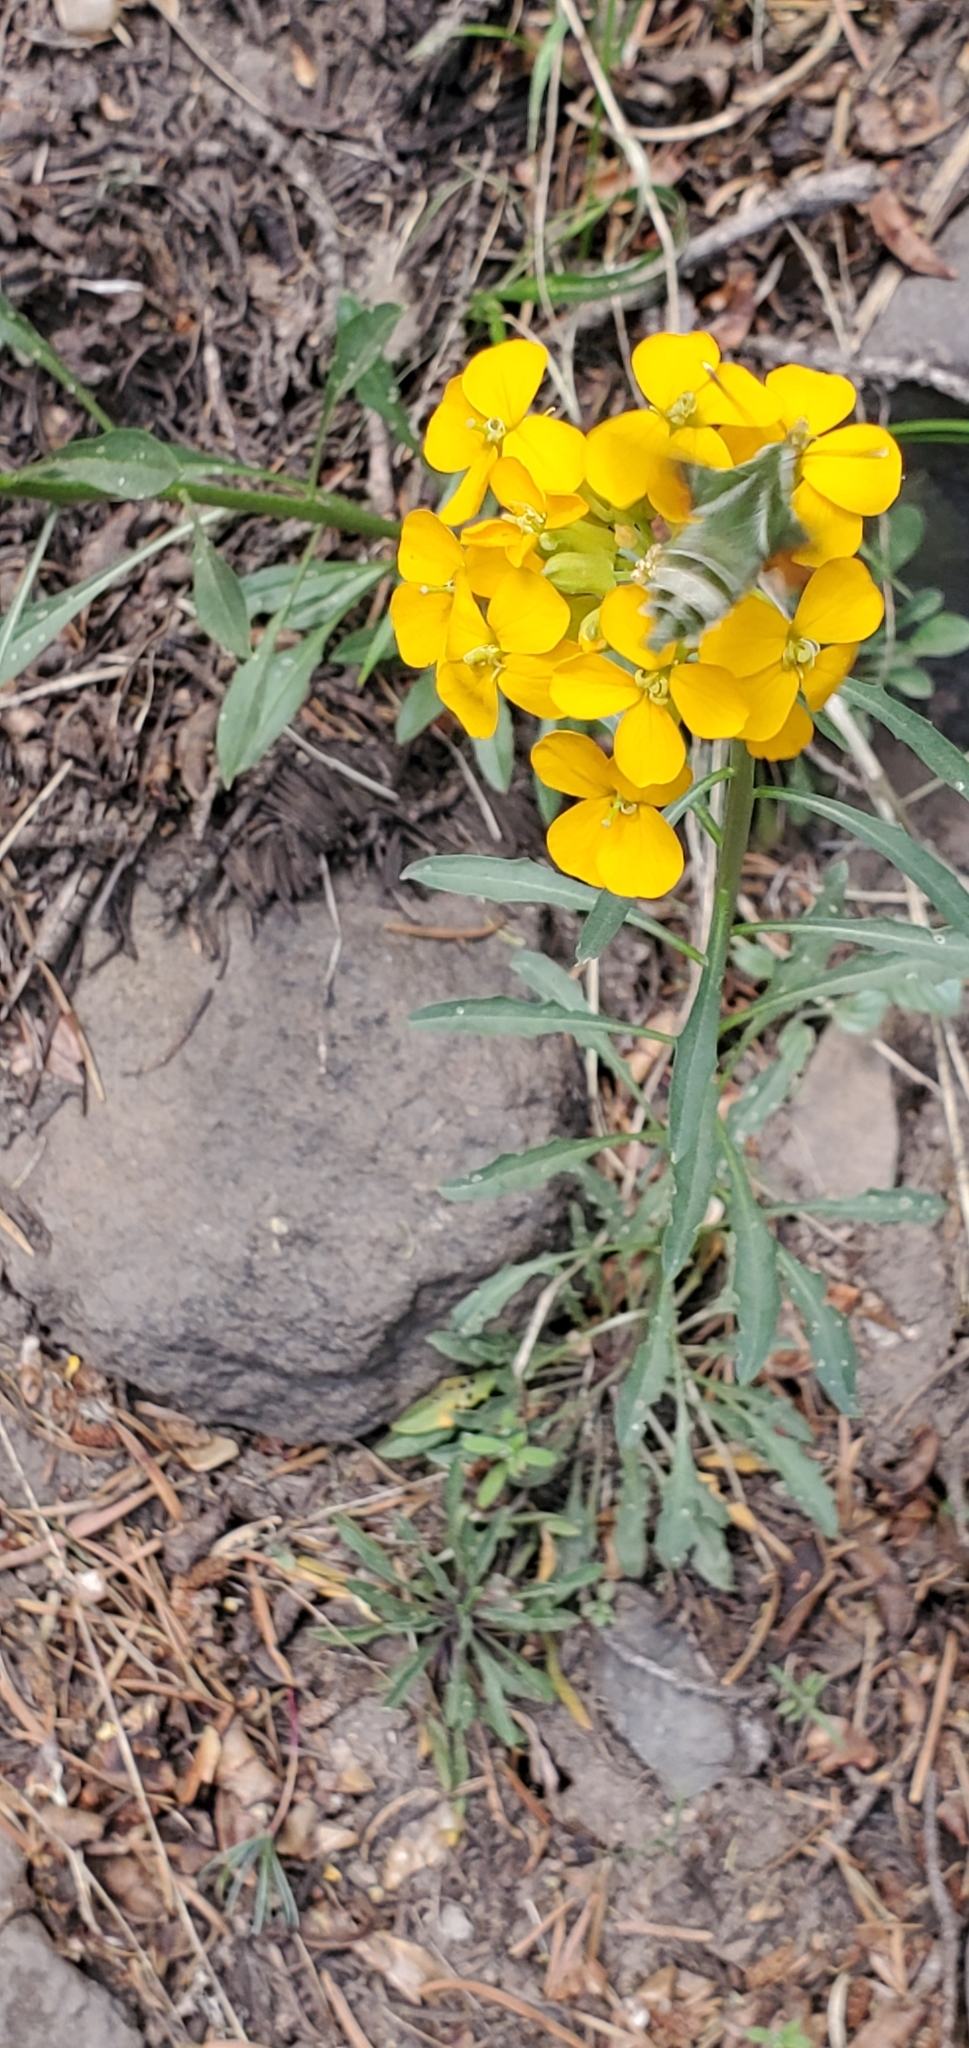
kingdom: Plantae
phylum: Tracheophyta
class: Magnoliopsida
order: Brassicales
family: Brassicaceae
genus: Erysimum
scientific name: Erysimum capitatum
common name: Western wallflower
